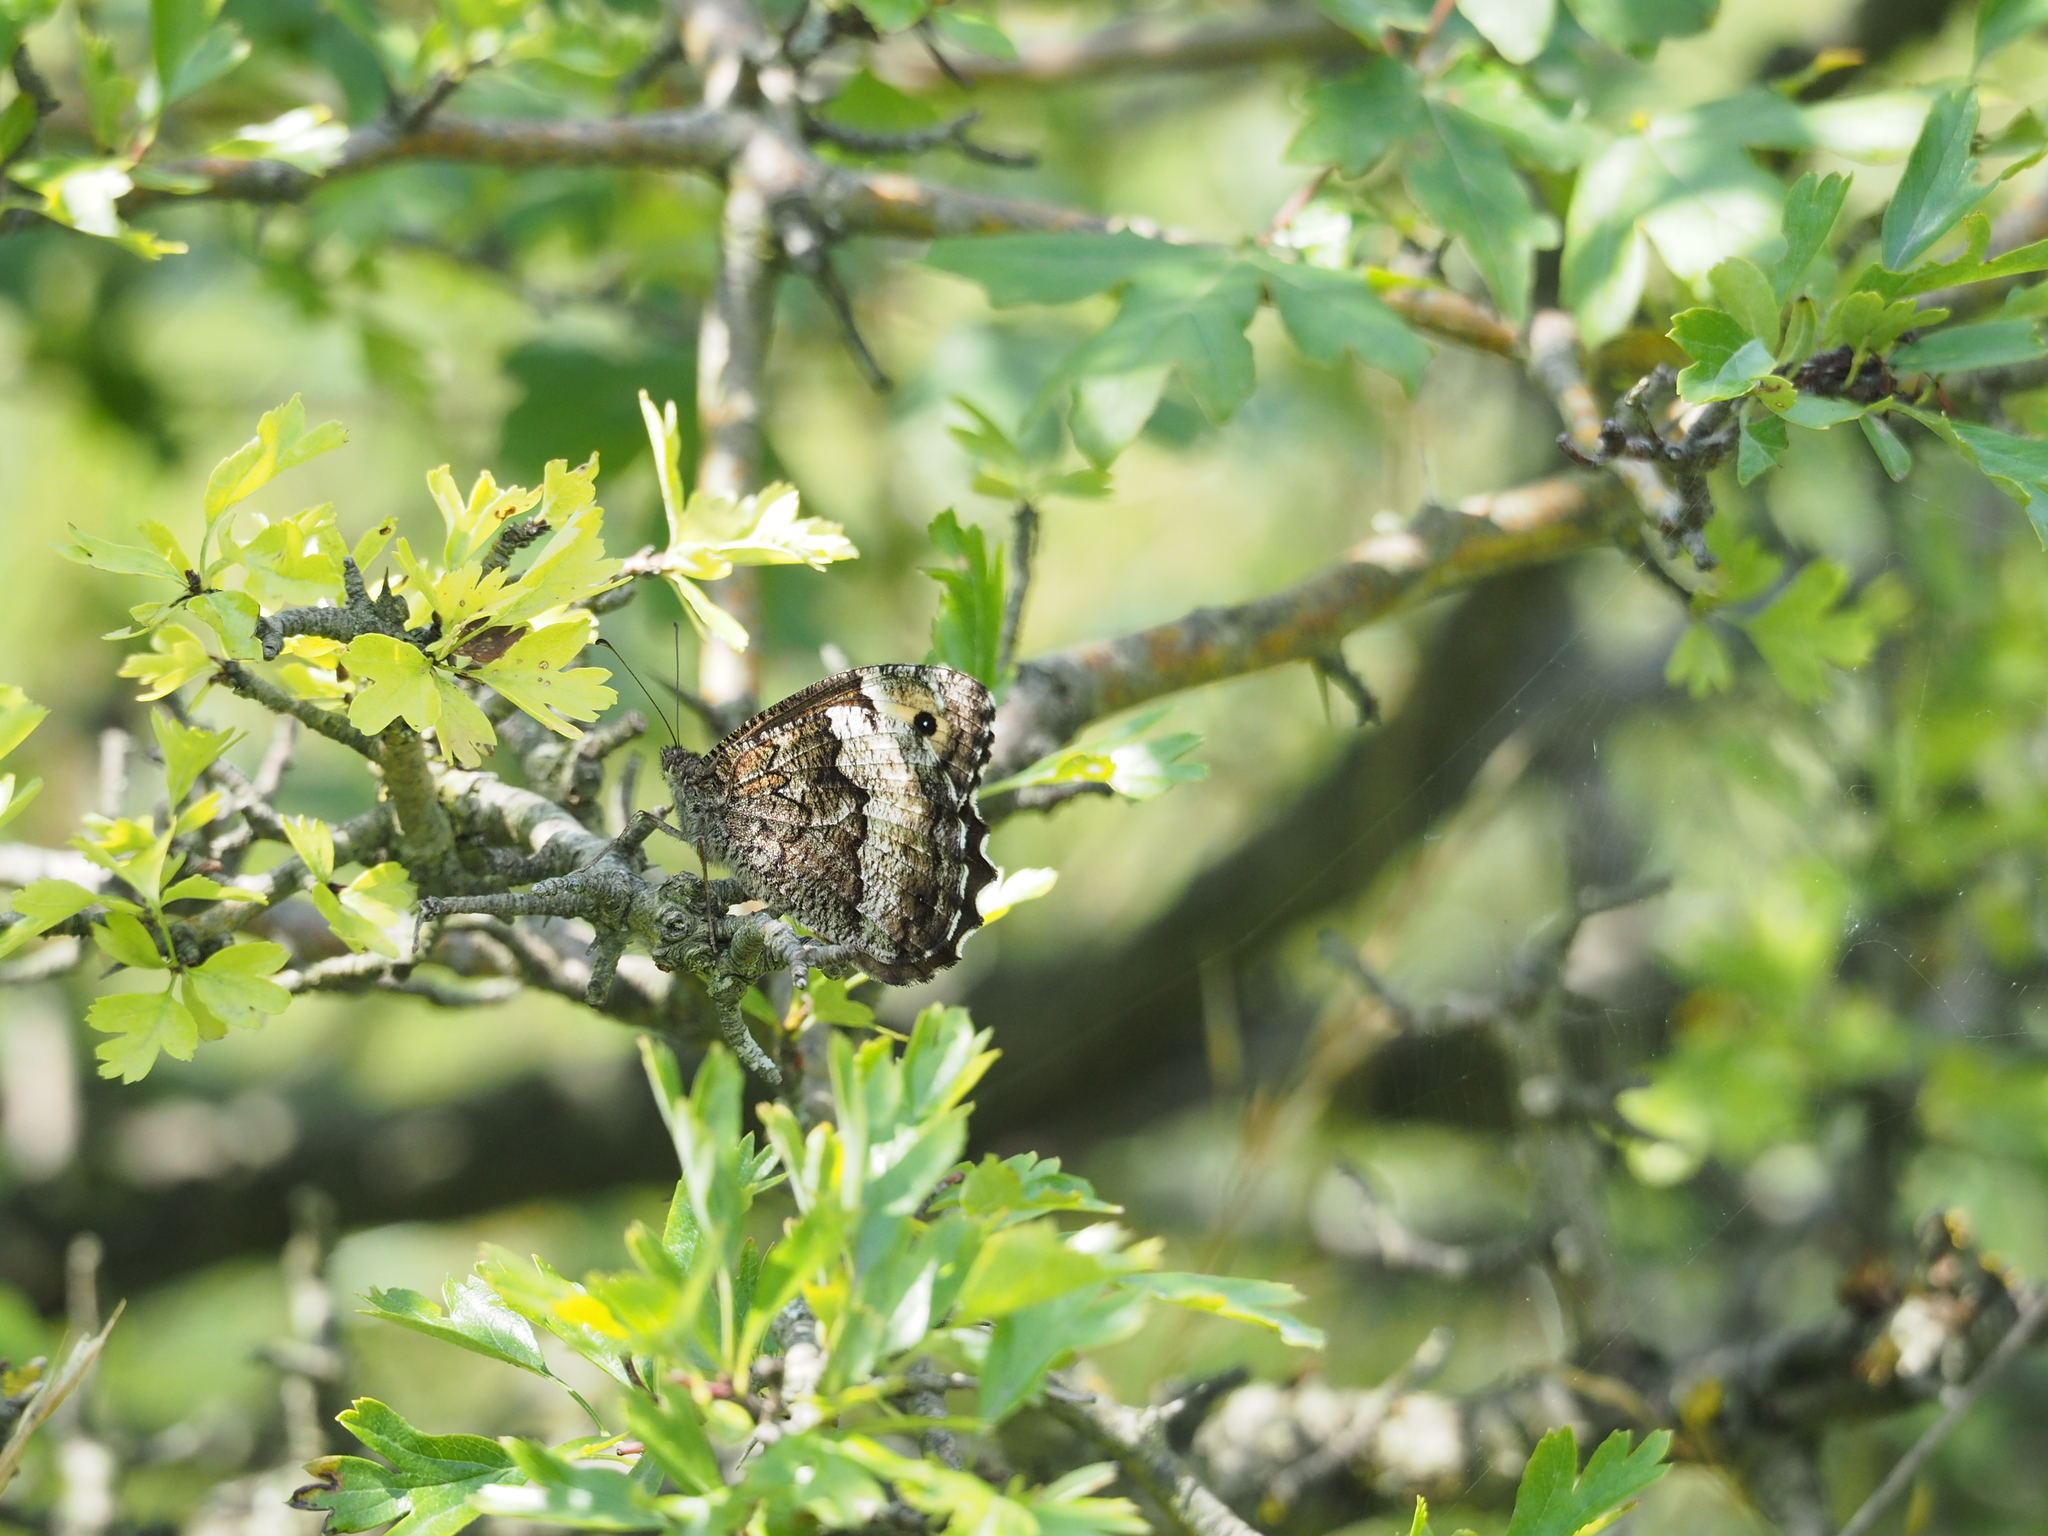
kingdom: Animalia
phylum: Arthropoda
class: Insecta
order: Lepidoptera
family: Nymphalidae
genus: Hipparchia
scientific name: Hipparchia fagi
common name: Woodland grayling
